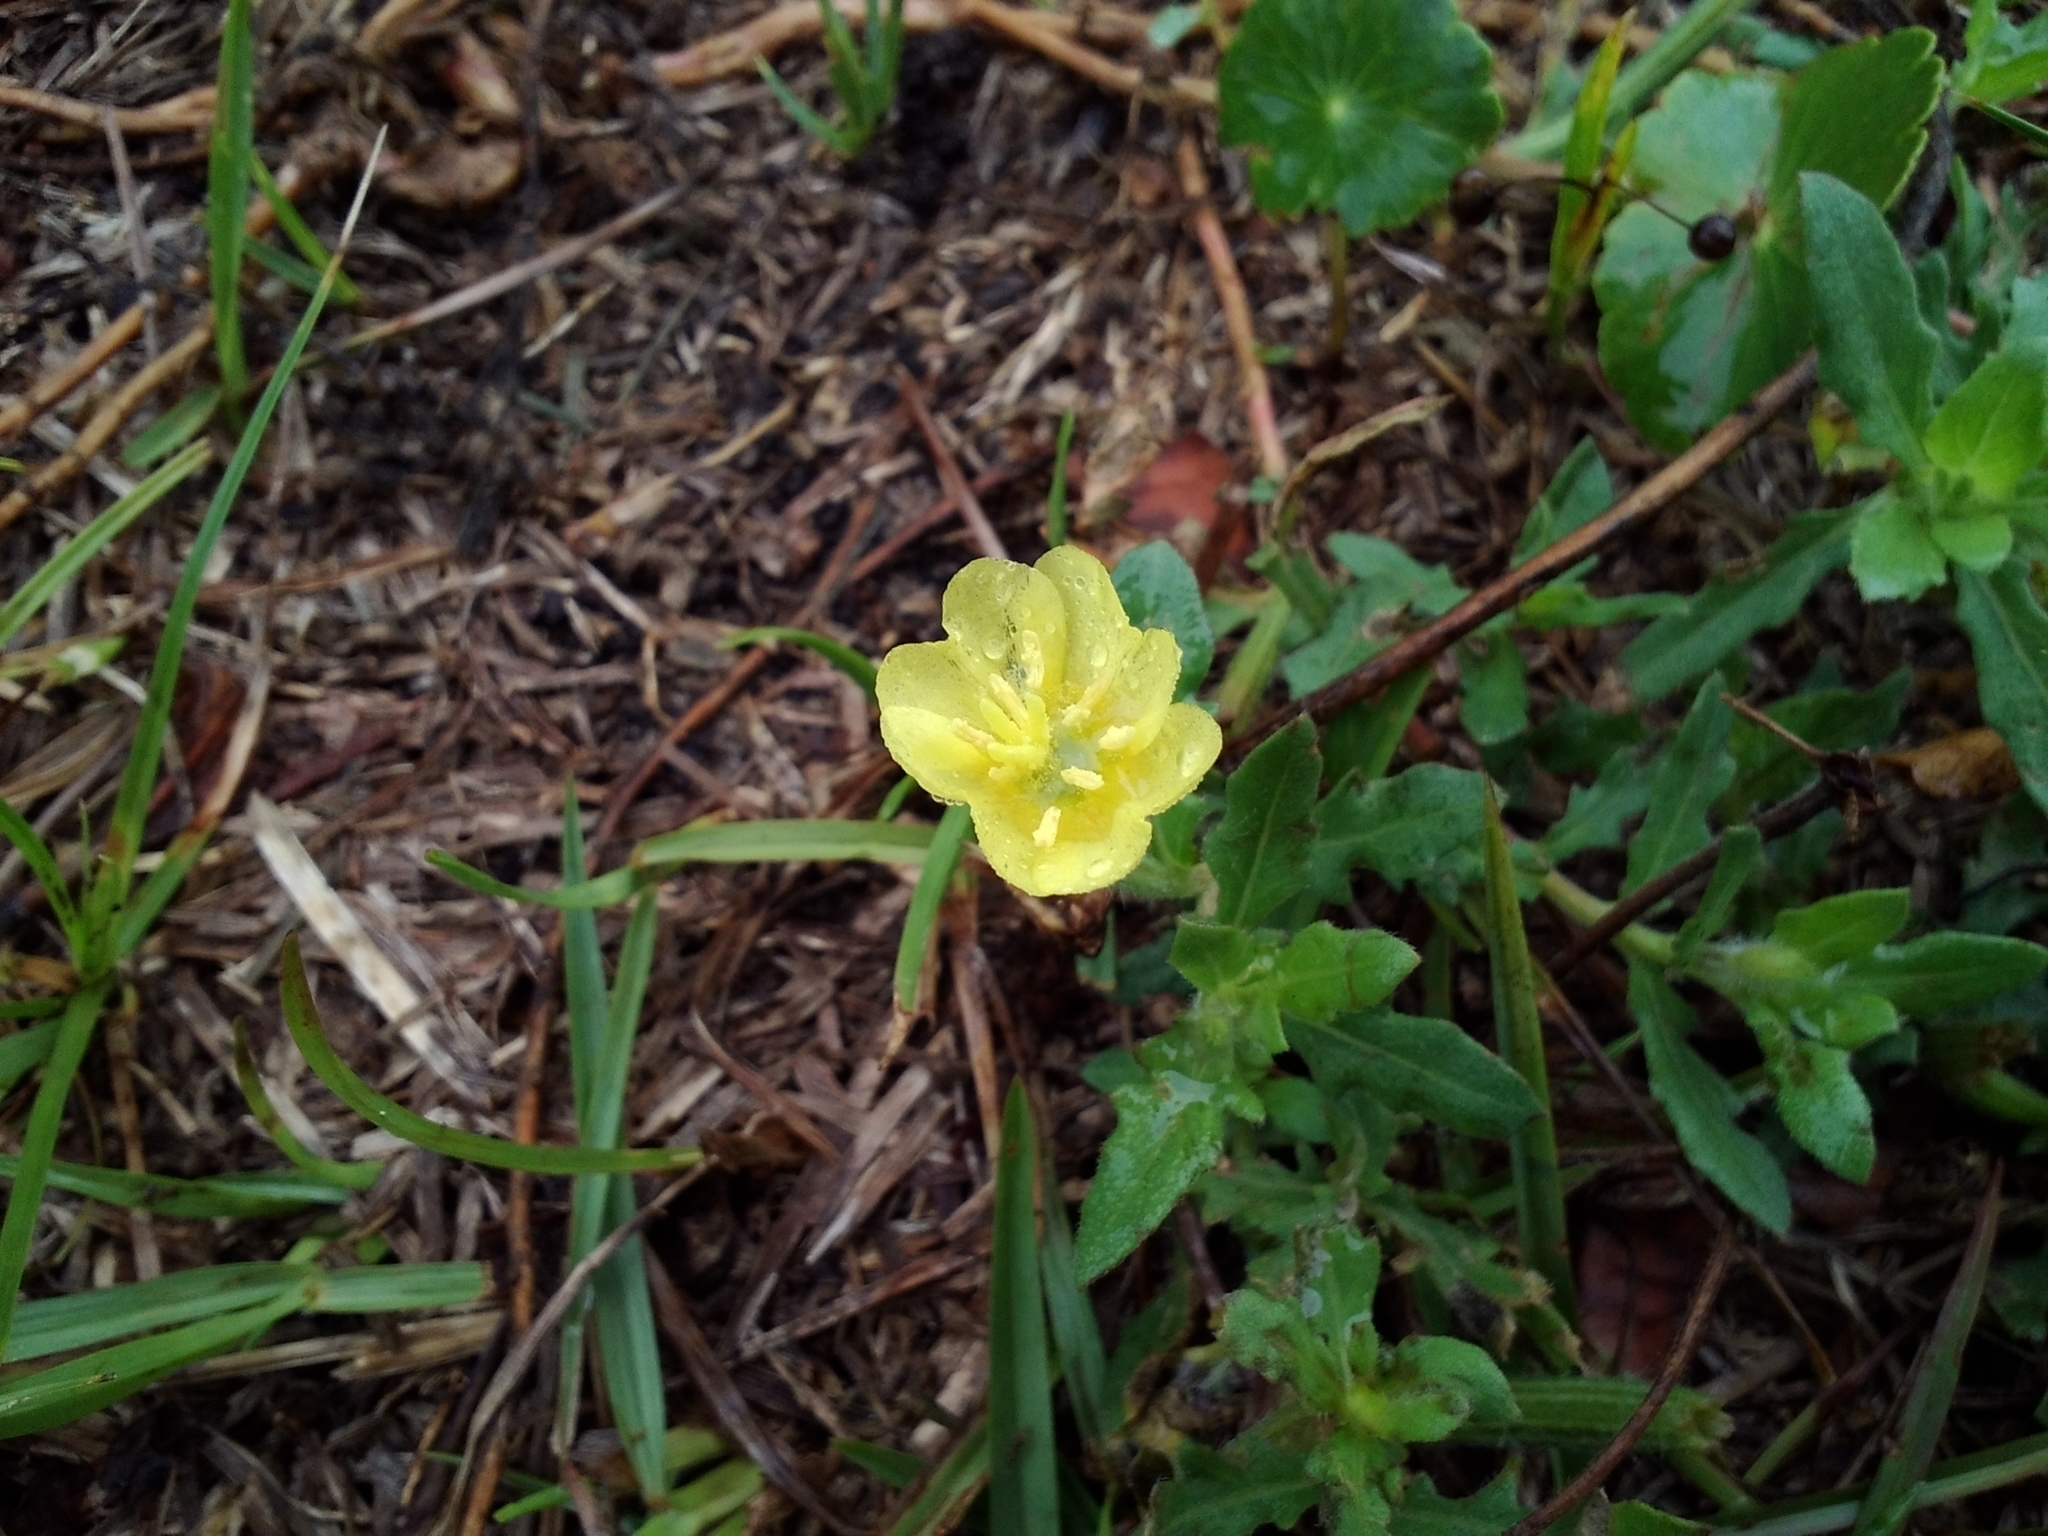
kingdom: Plantae
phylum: Tracheophyta
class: Magnoliopsida
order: Myrtales
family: Onagraceae
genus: Oenothera
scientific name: Oenothera laciniata
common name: Cut-leaved evening-primrose
